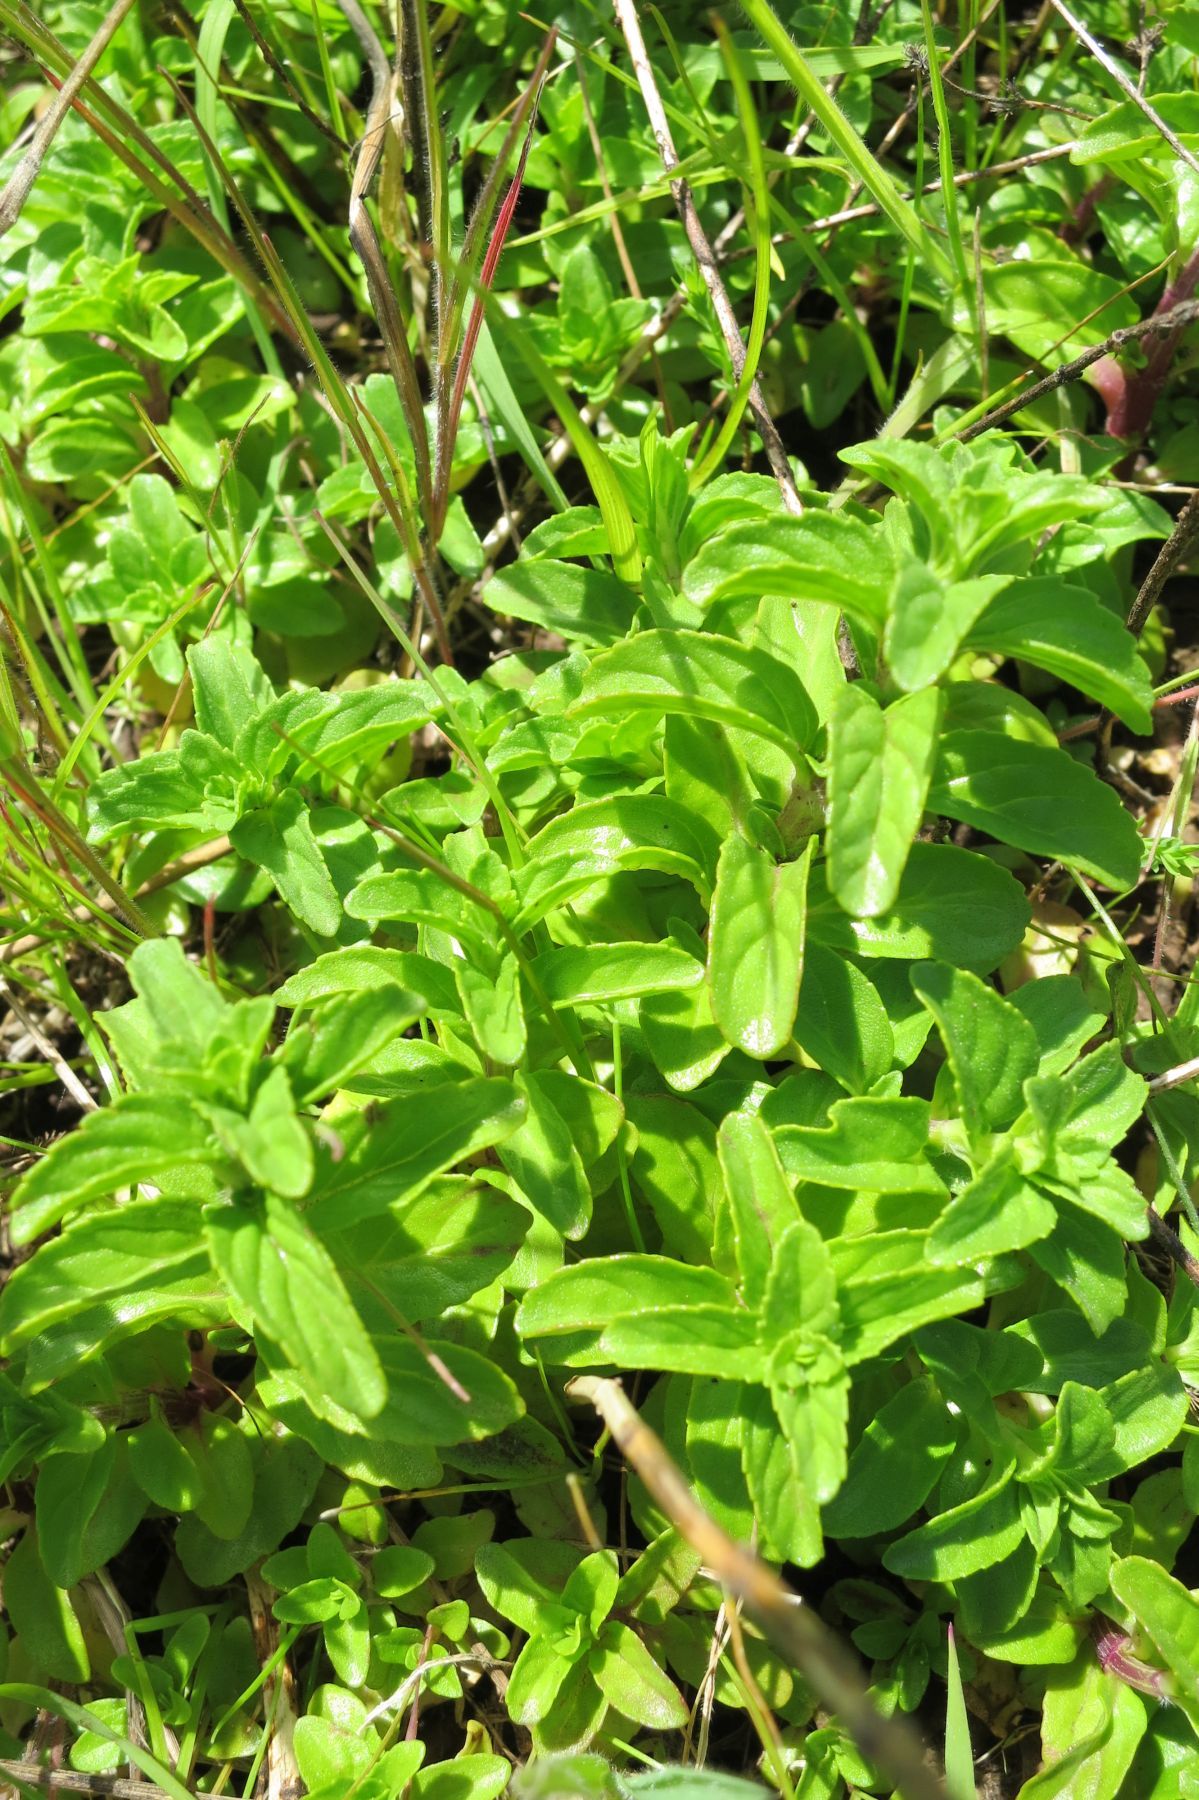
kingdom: Plantae
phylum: Tracheophyta
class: Magnoliopsida
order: Lamiales
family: Lamiaceae
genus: Mentha
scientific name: Mentha pulegium
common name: Pennyroyal
